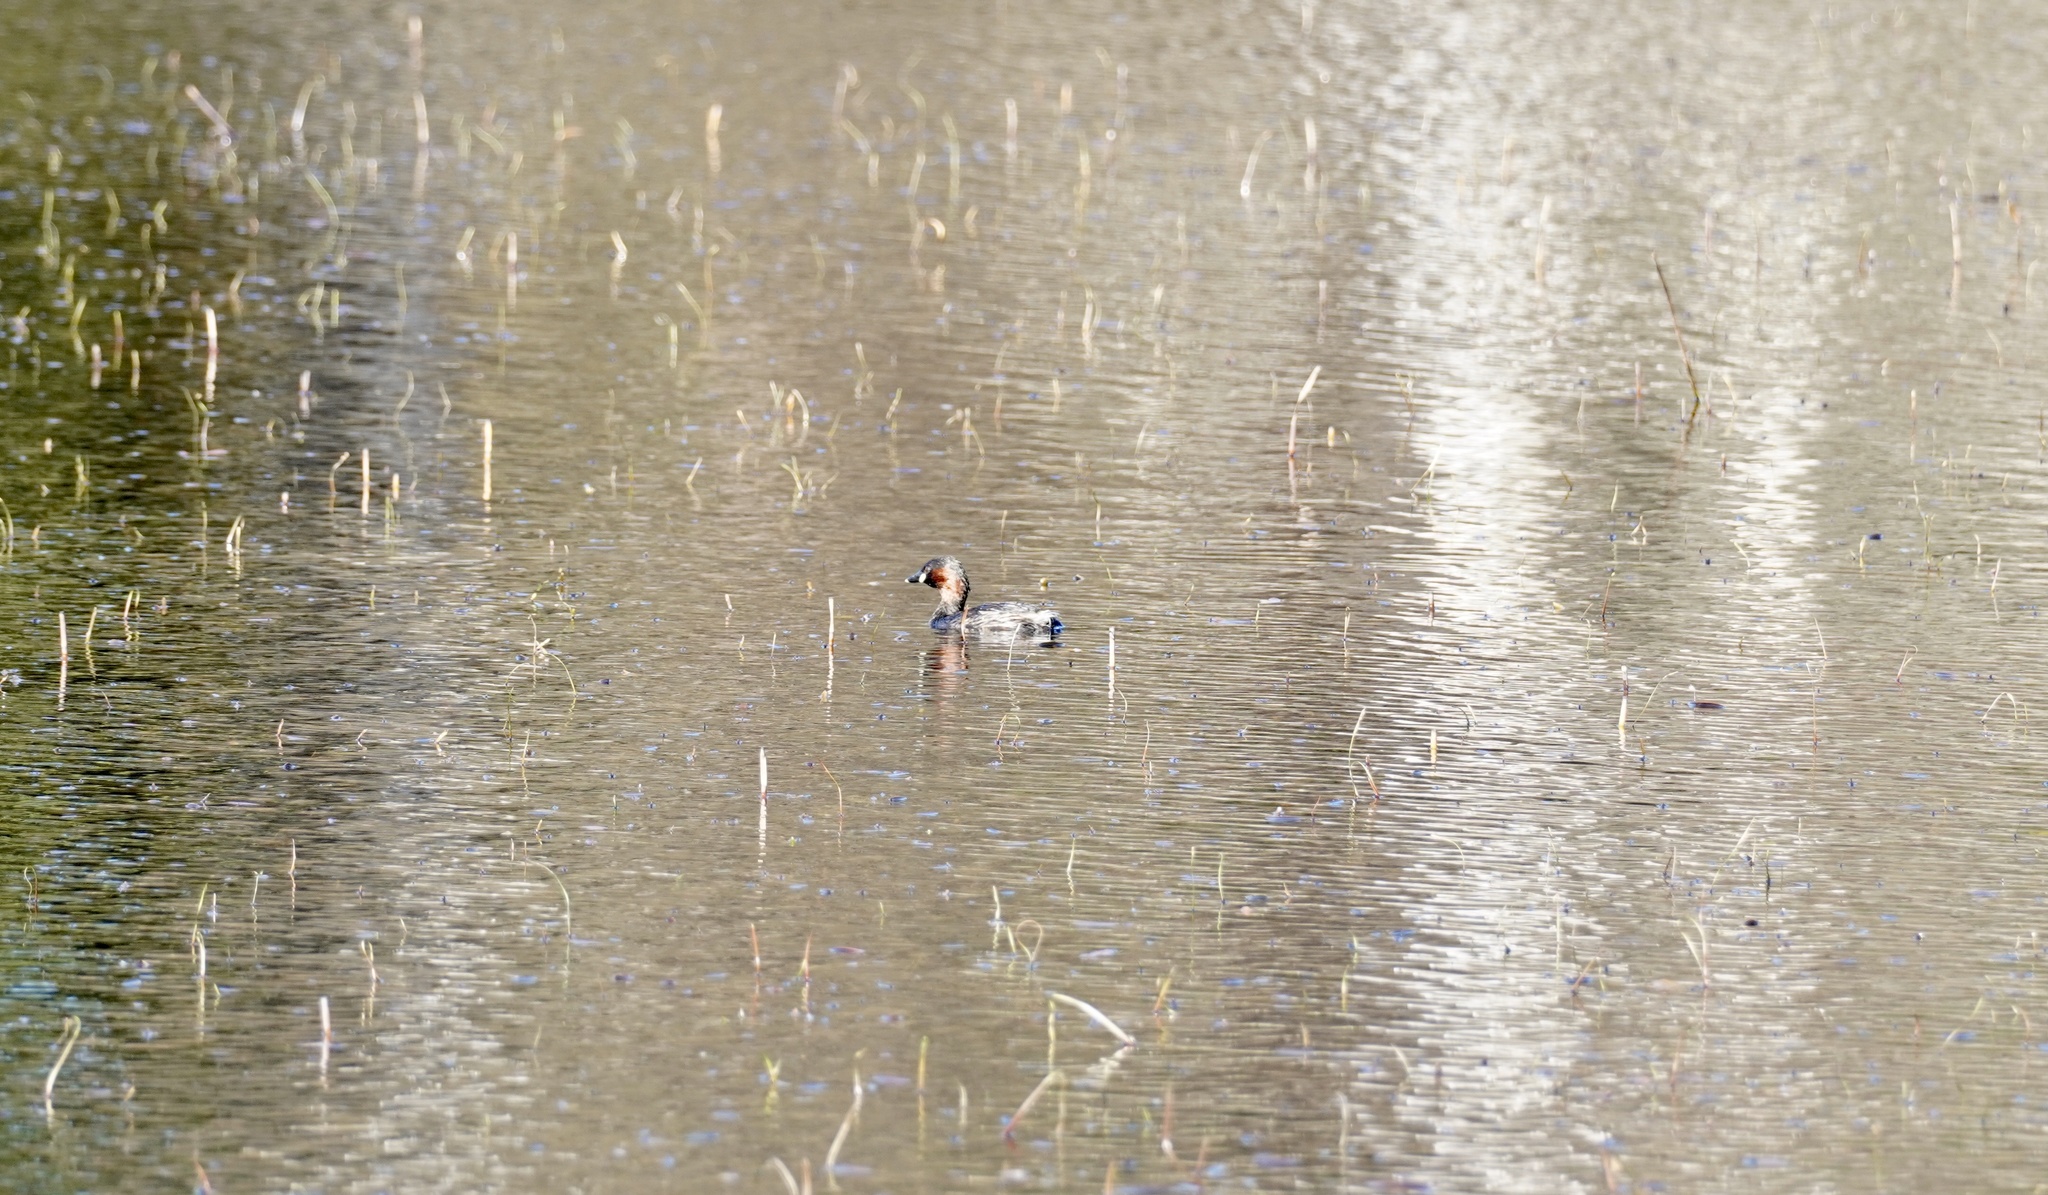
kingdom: Animalia
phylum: Chordata
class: Aves
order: Podicipediformes
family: Podicipedidae
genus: Tachybaptus
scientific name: Tachybaptus ruficollis
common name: Little grebe
